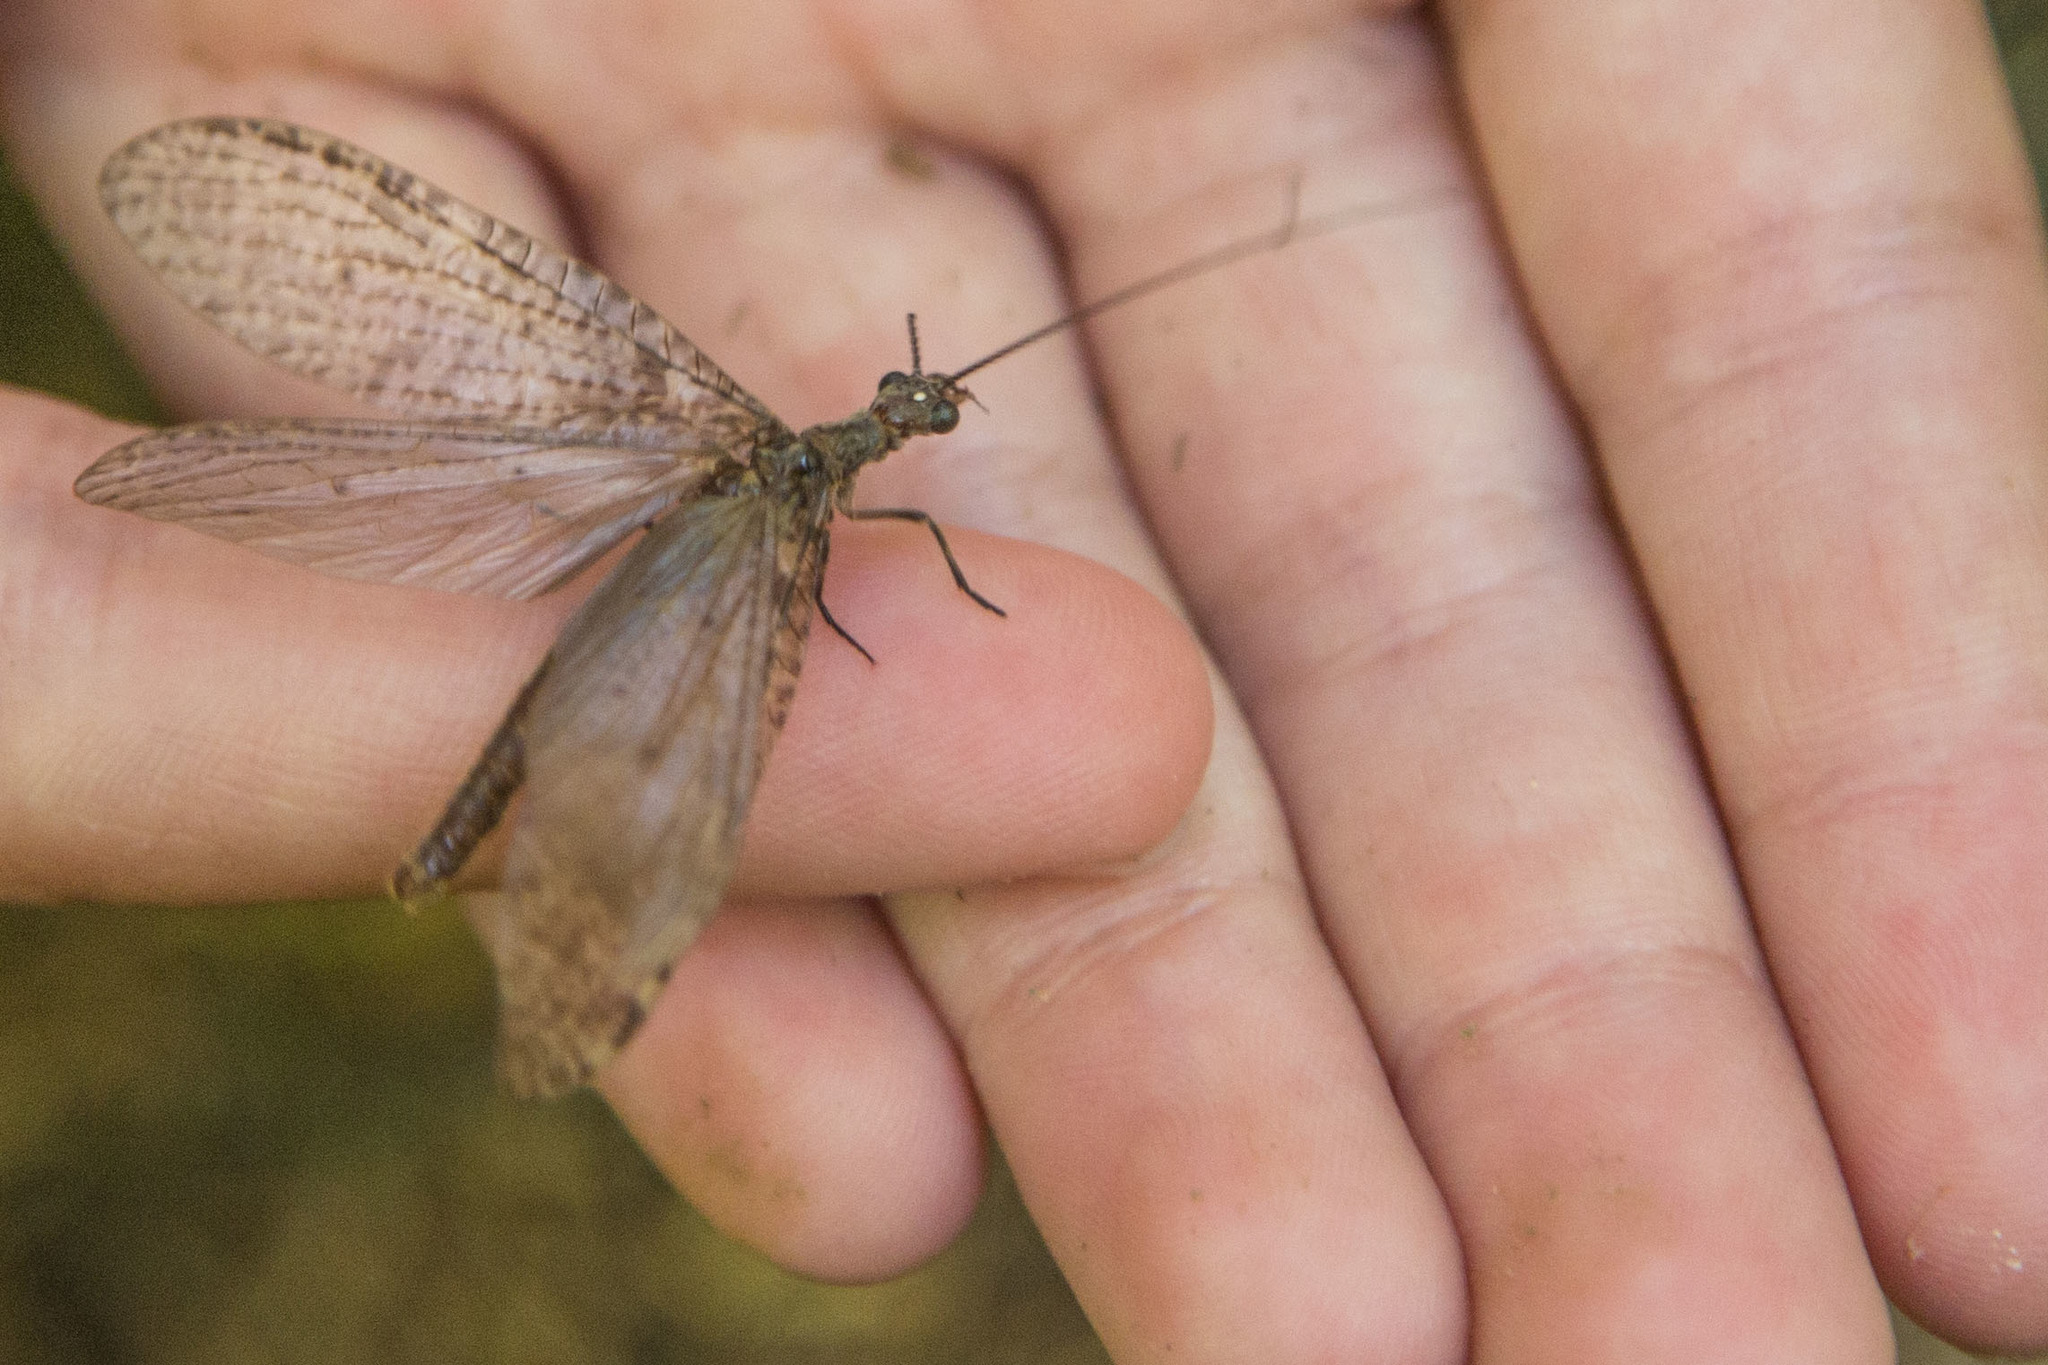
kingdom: Animalia
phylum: Arthropoda
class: Insecta
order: Megaloptera
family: Corydalidae
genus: Archichauliodes
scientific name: Archichauliodes diversus
